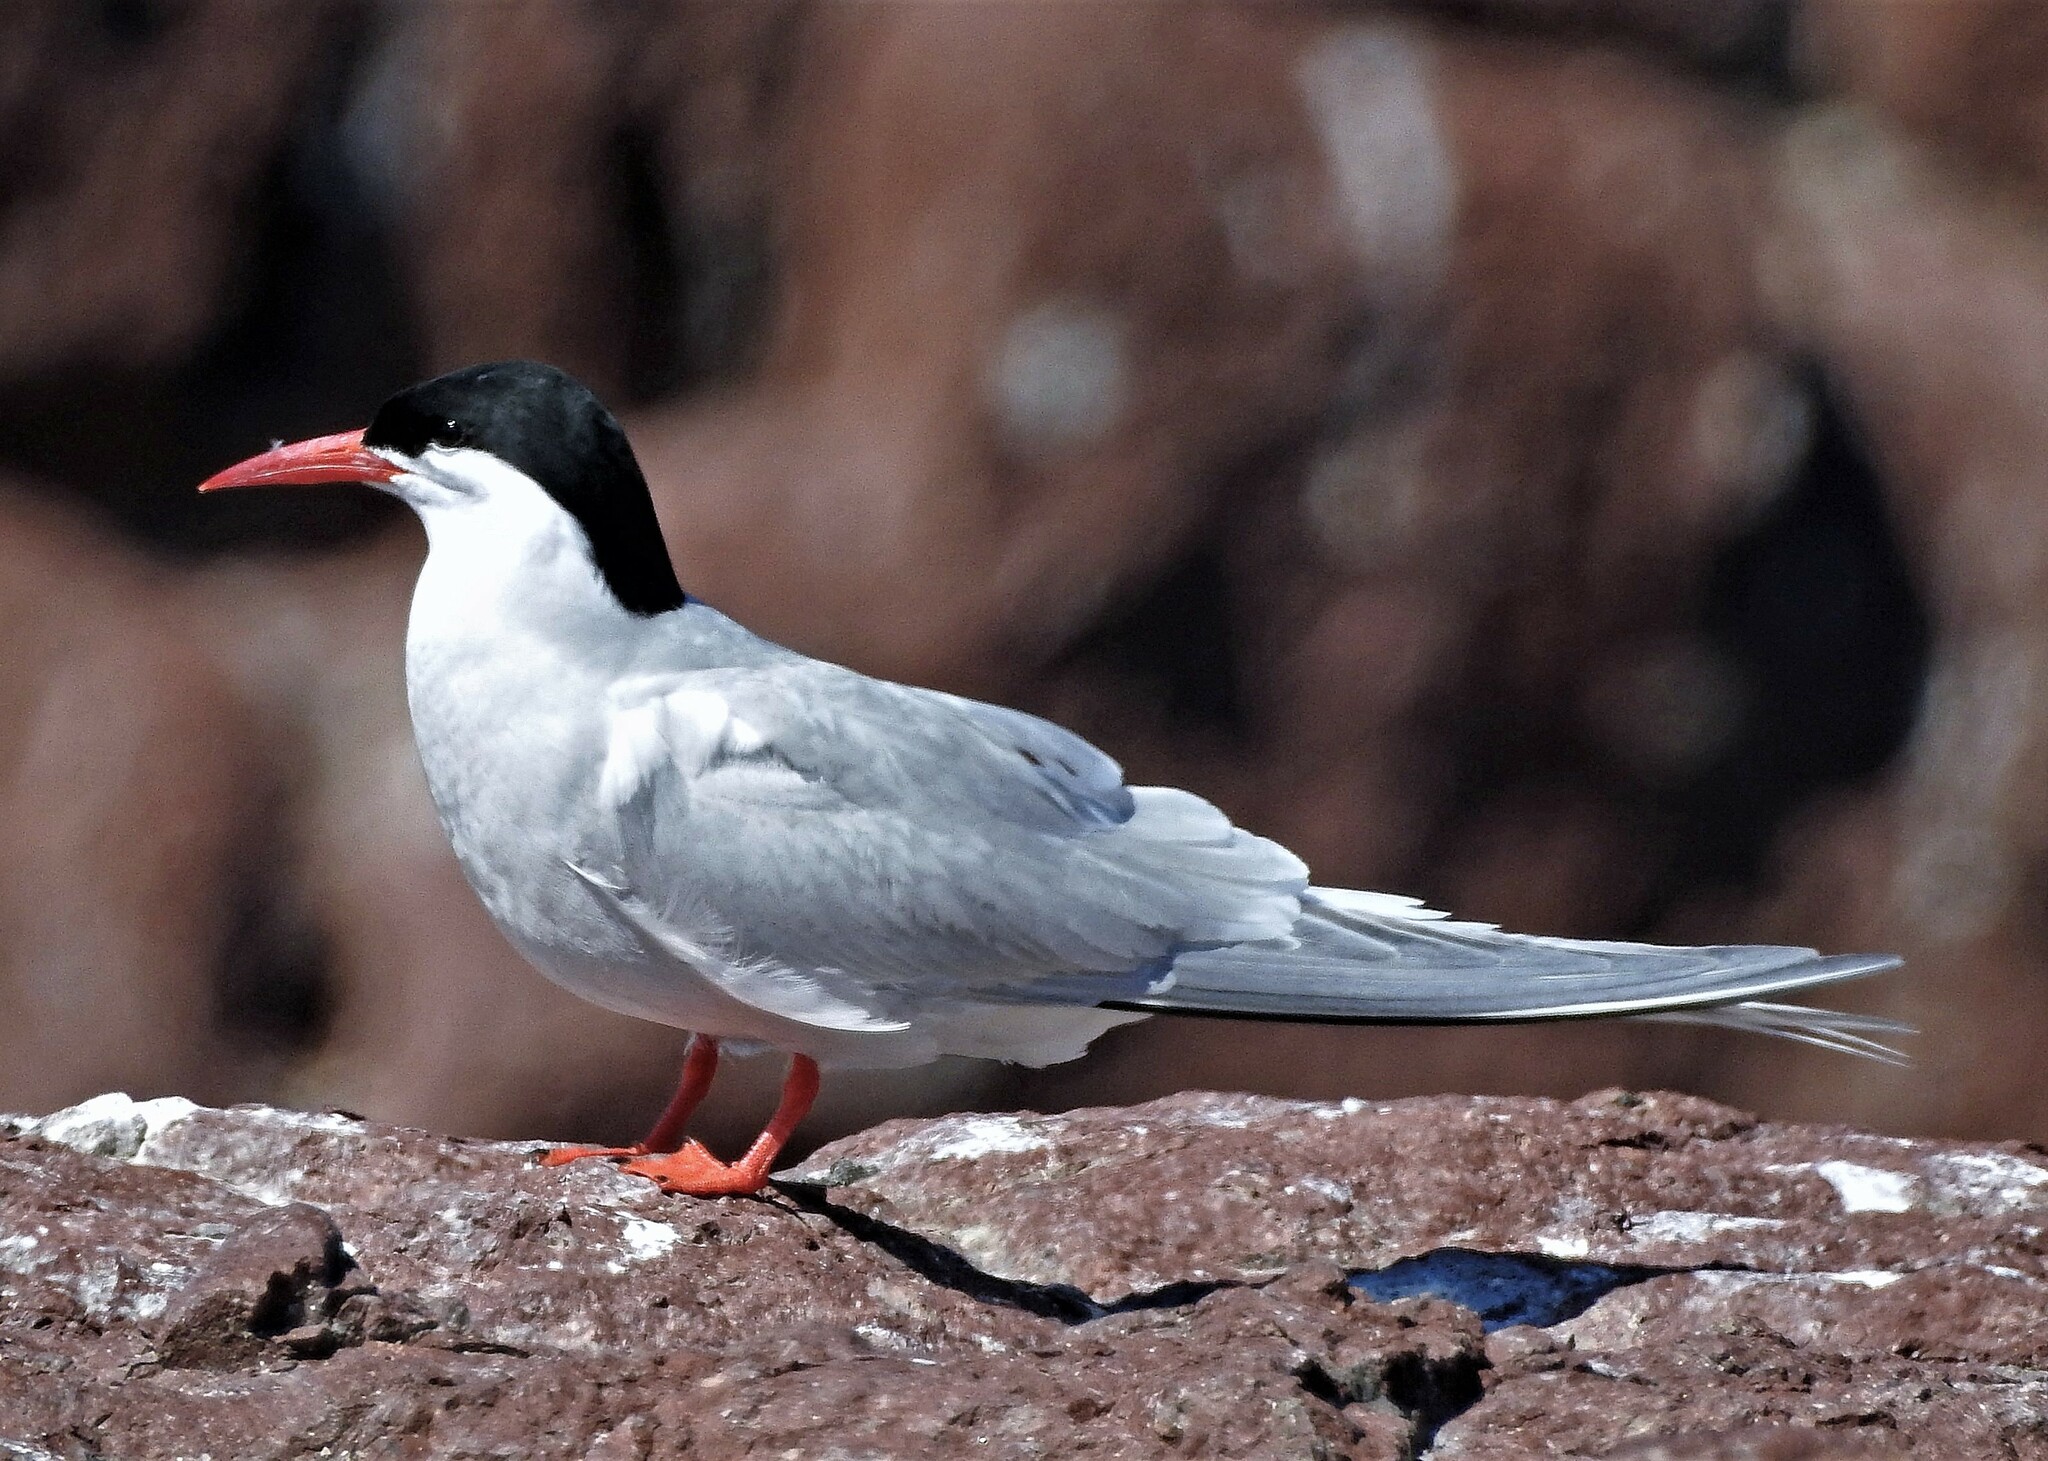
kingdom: Animalia
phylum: Chordata
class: Aves
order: Charadriiformes
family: Laridae
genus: Sterna
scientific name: Sterna hirundinacea
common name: South american tern
